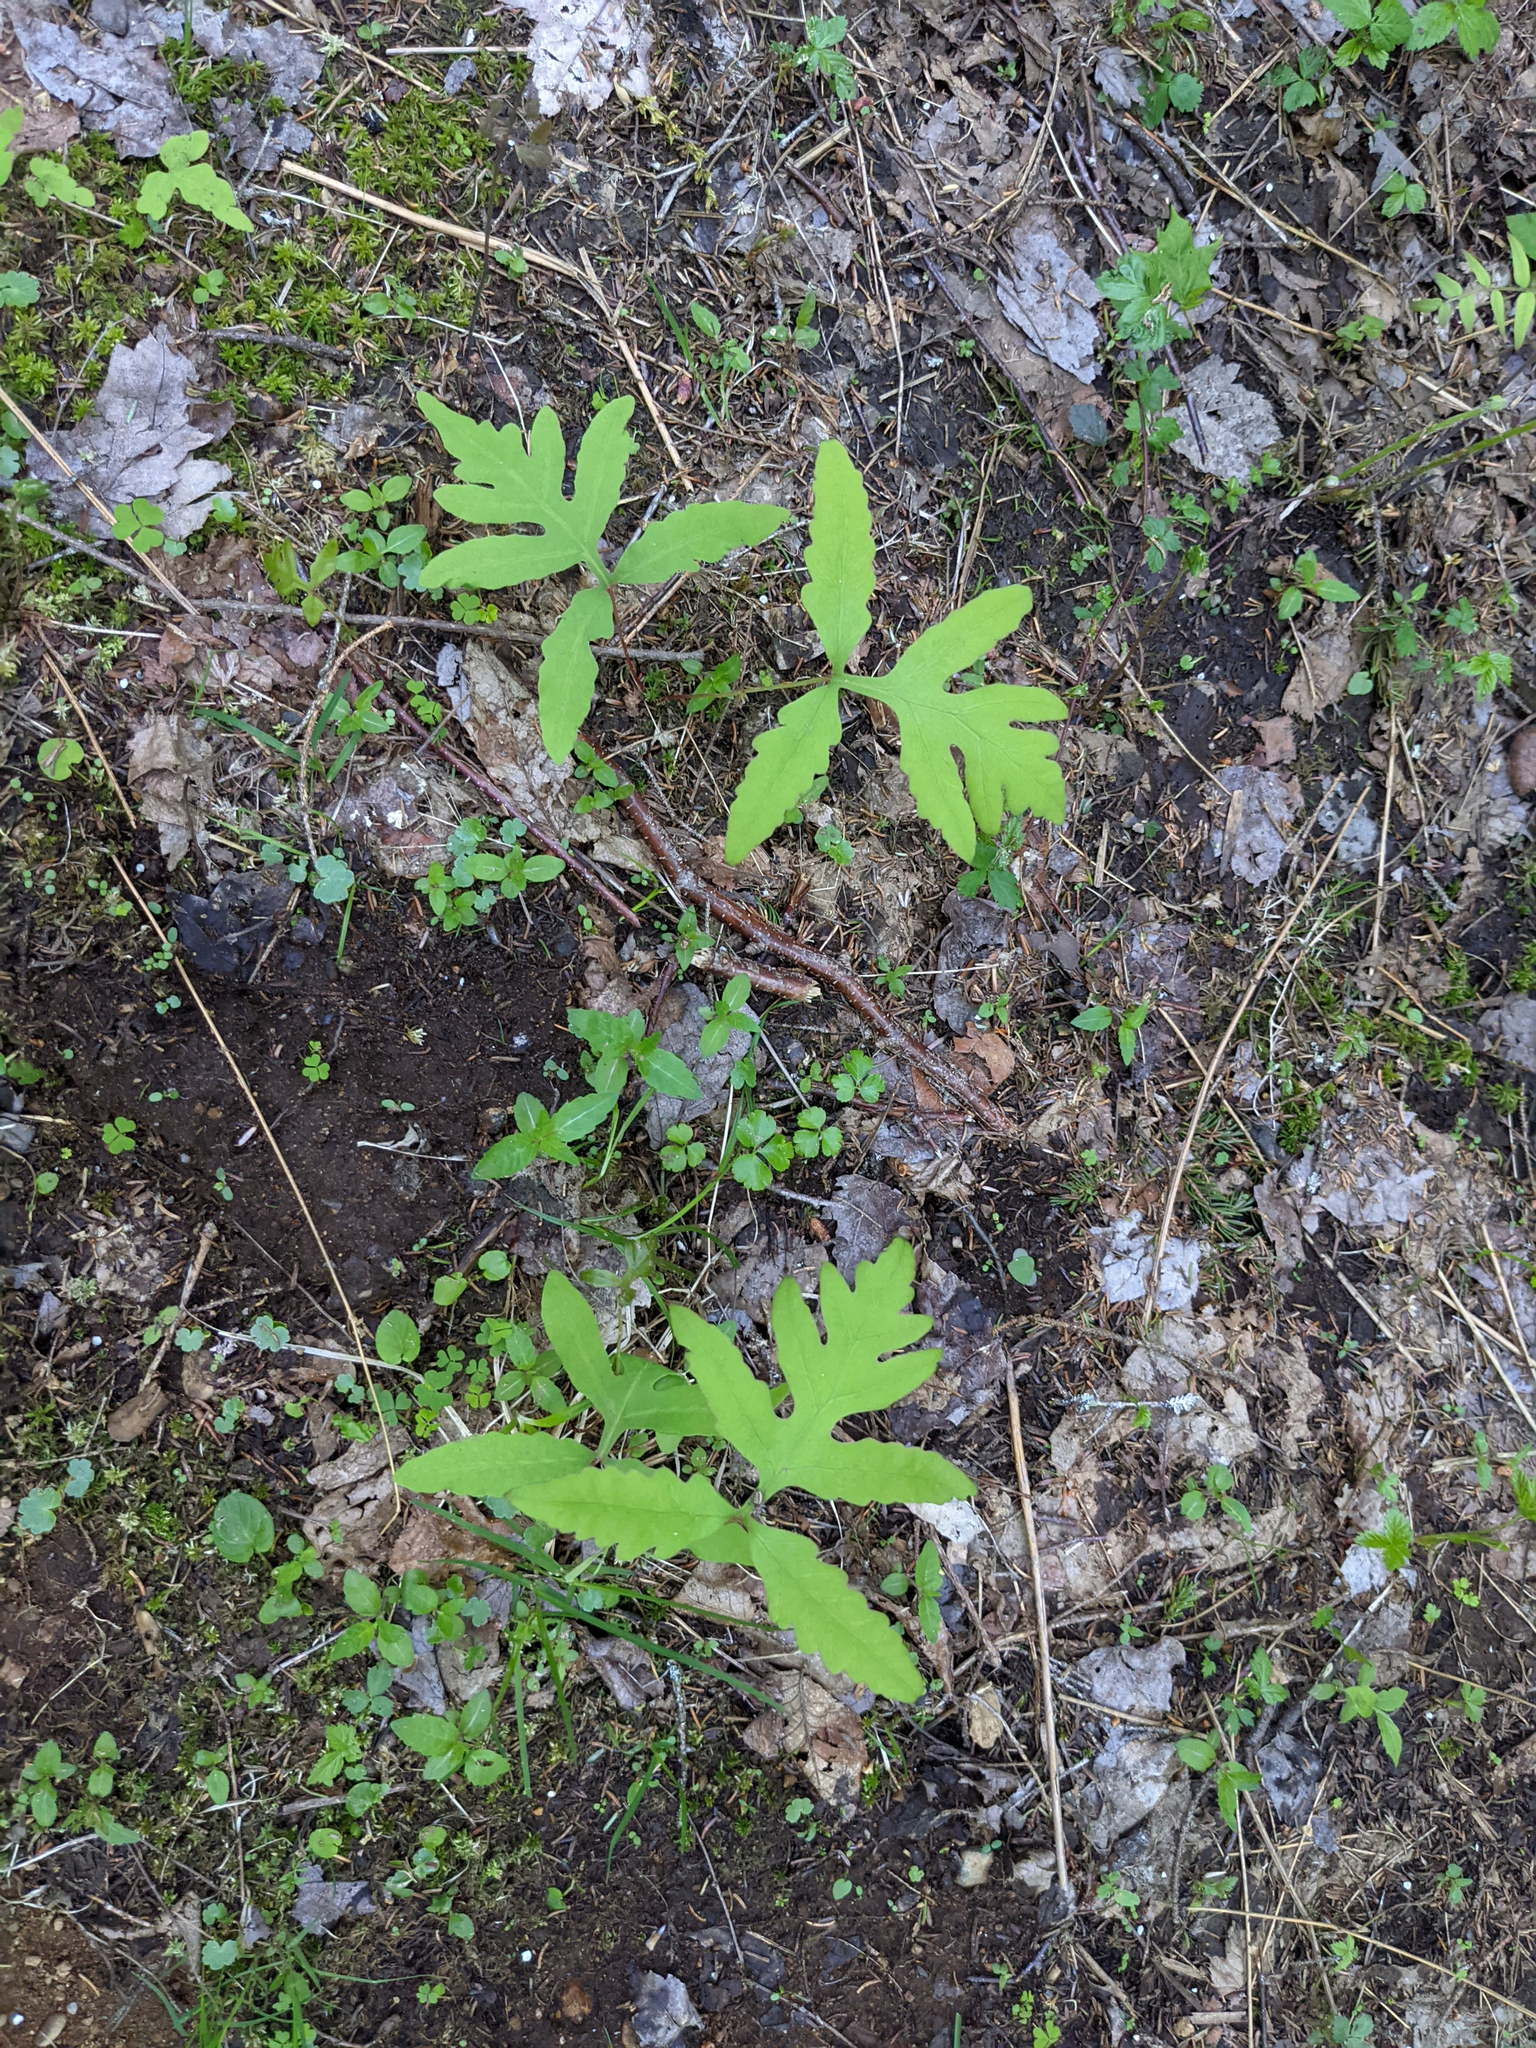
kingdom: Plantae
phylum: Tracheophyta
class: Polypodiopsida
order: Polypodiales
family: Onocleaceae
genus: Onoclea
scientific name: Onoclea sensibilis
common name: Sensitive fern
